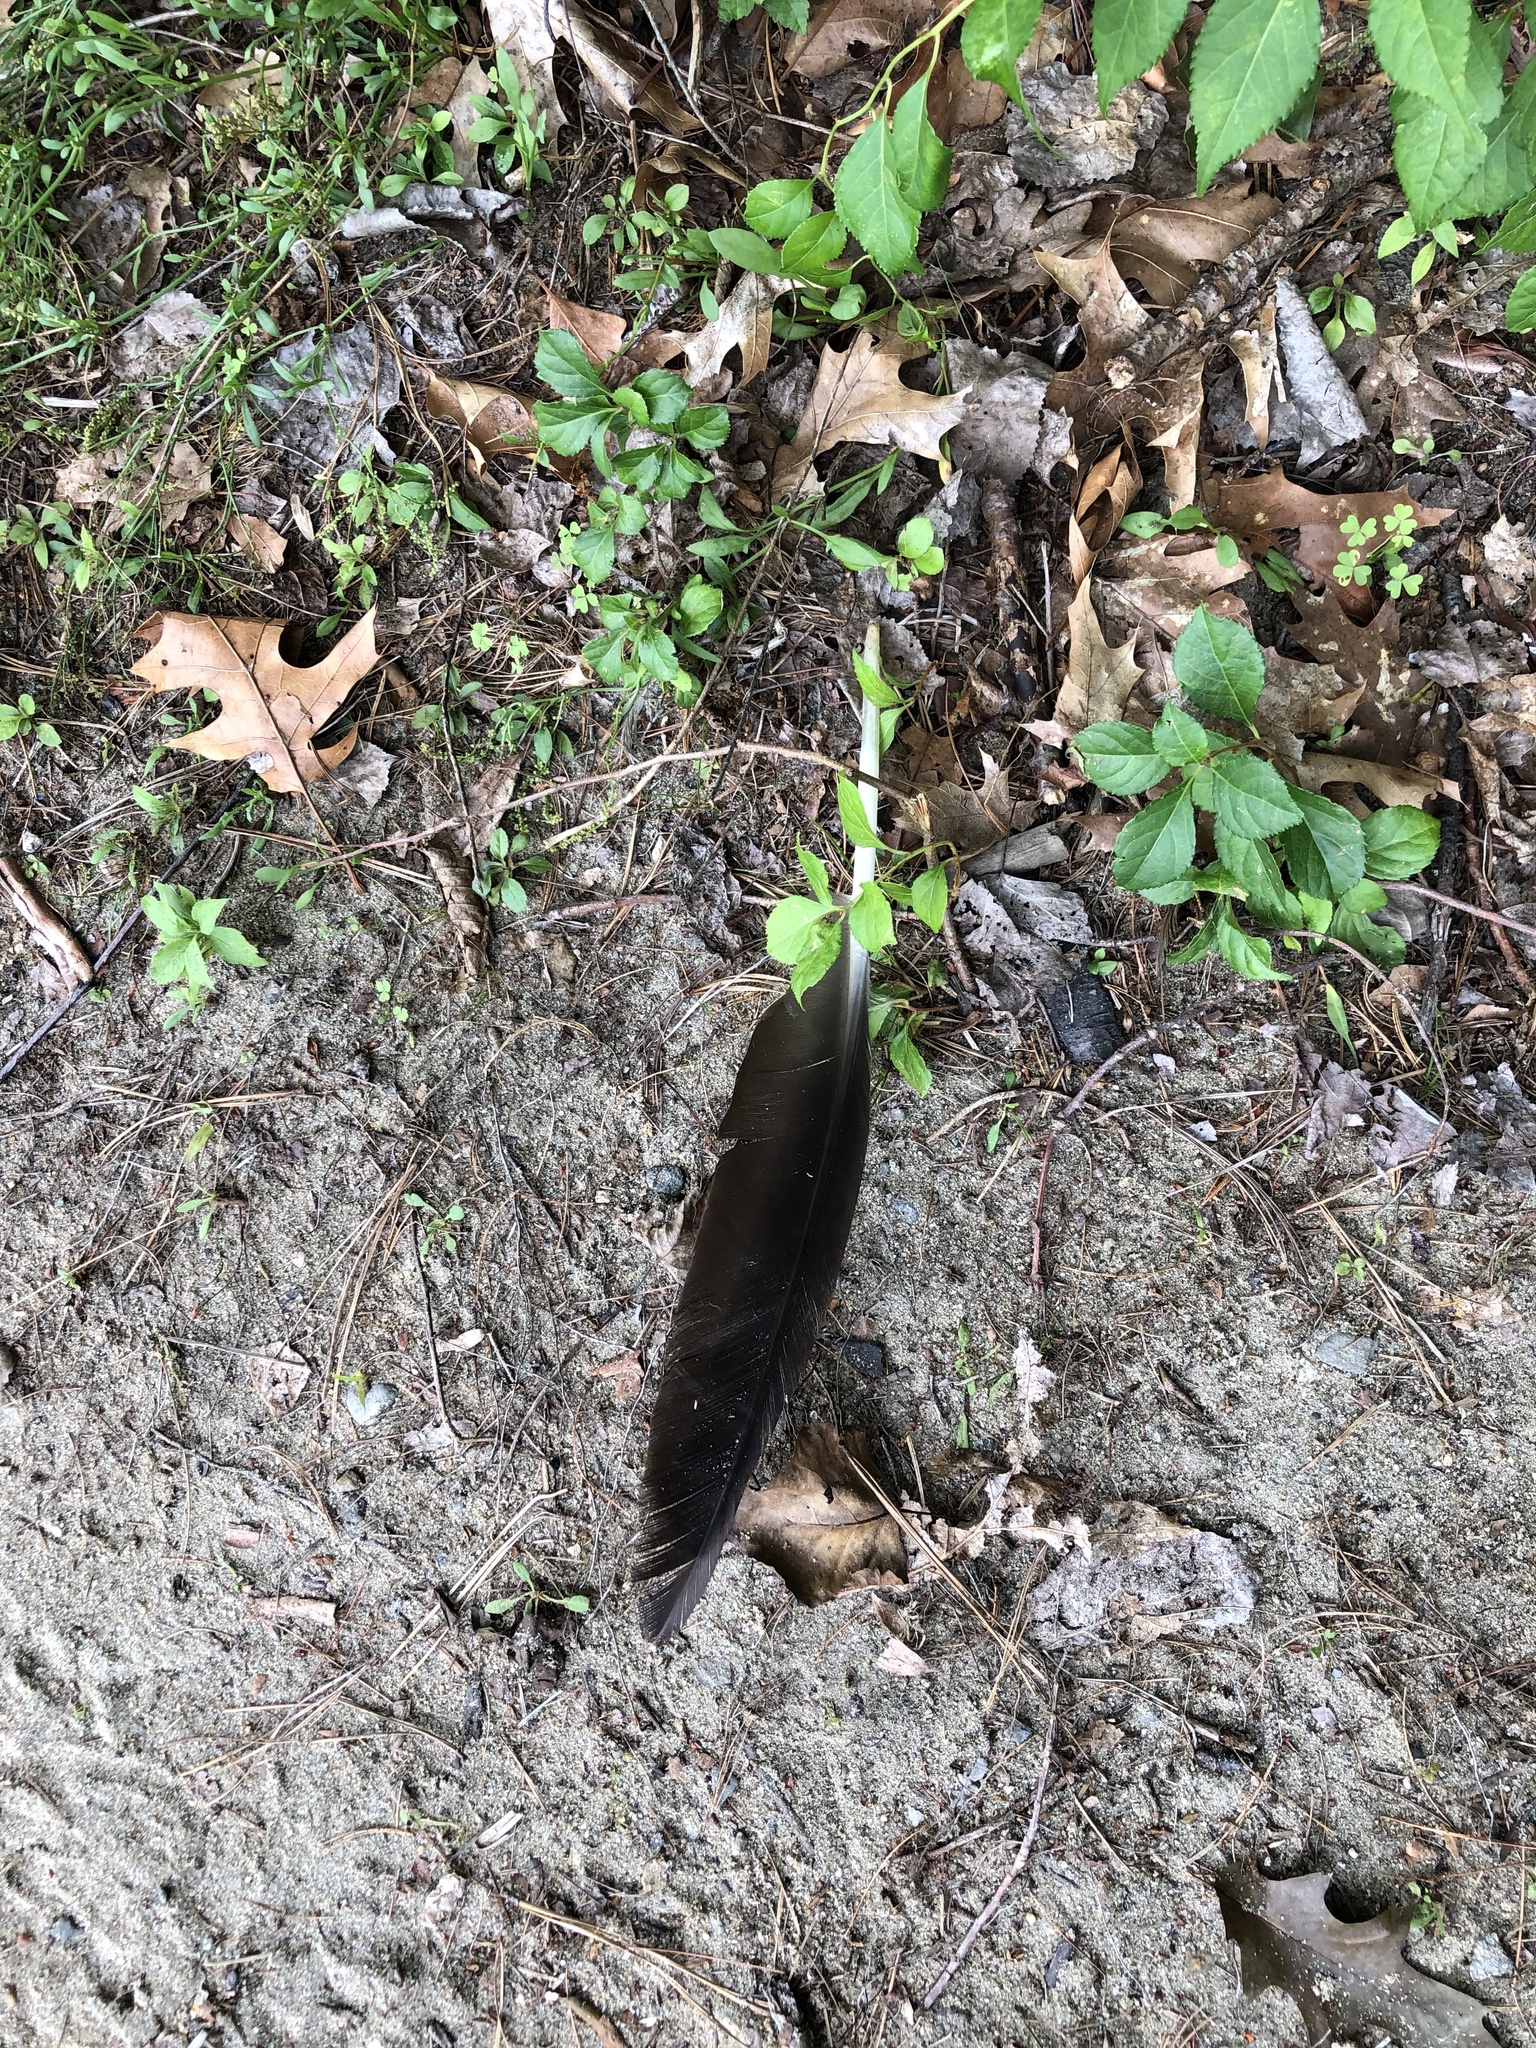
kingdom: Animalia
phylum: Chordata
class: Aves
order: Anseriformes
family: Anatidae
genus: Branta
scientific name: Branta canadensis
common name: Canada goose
